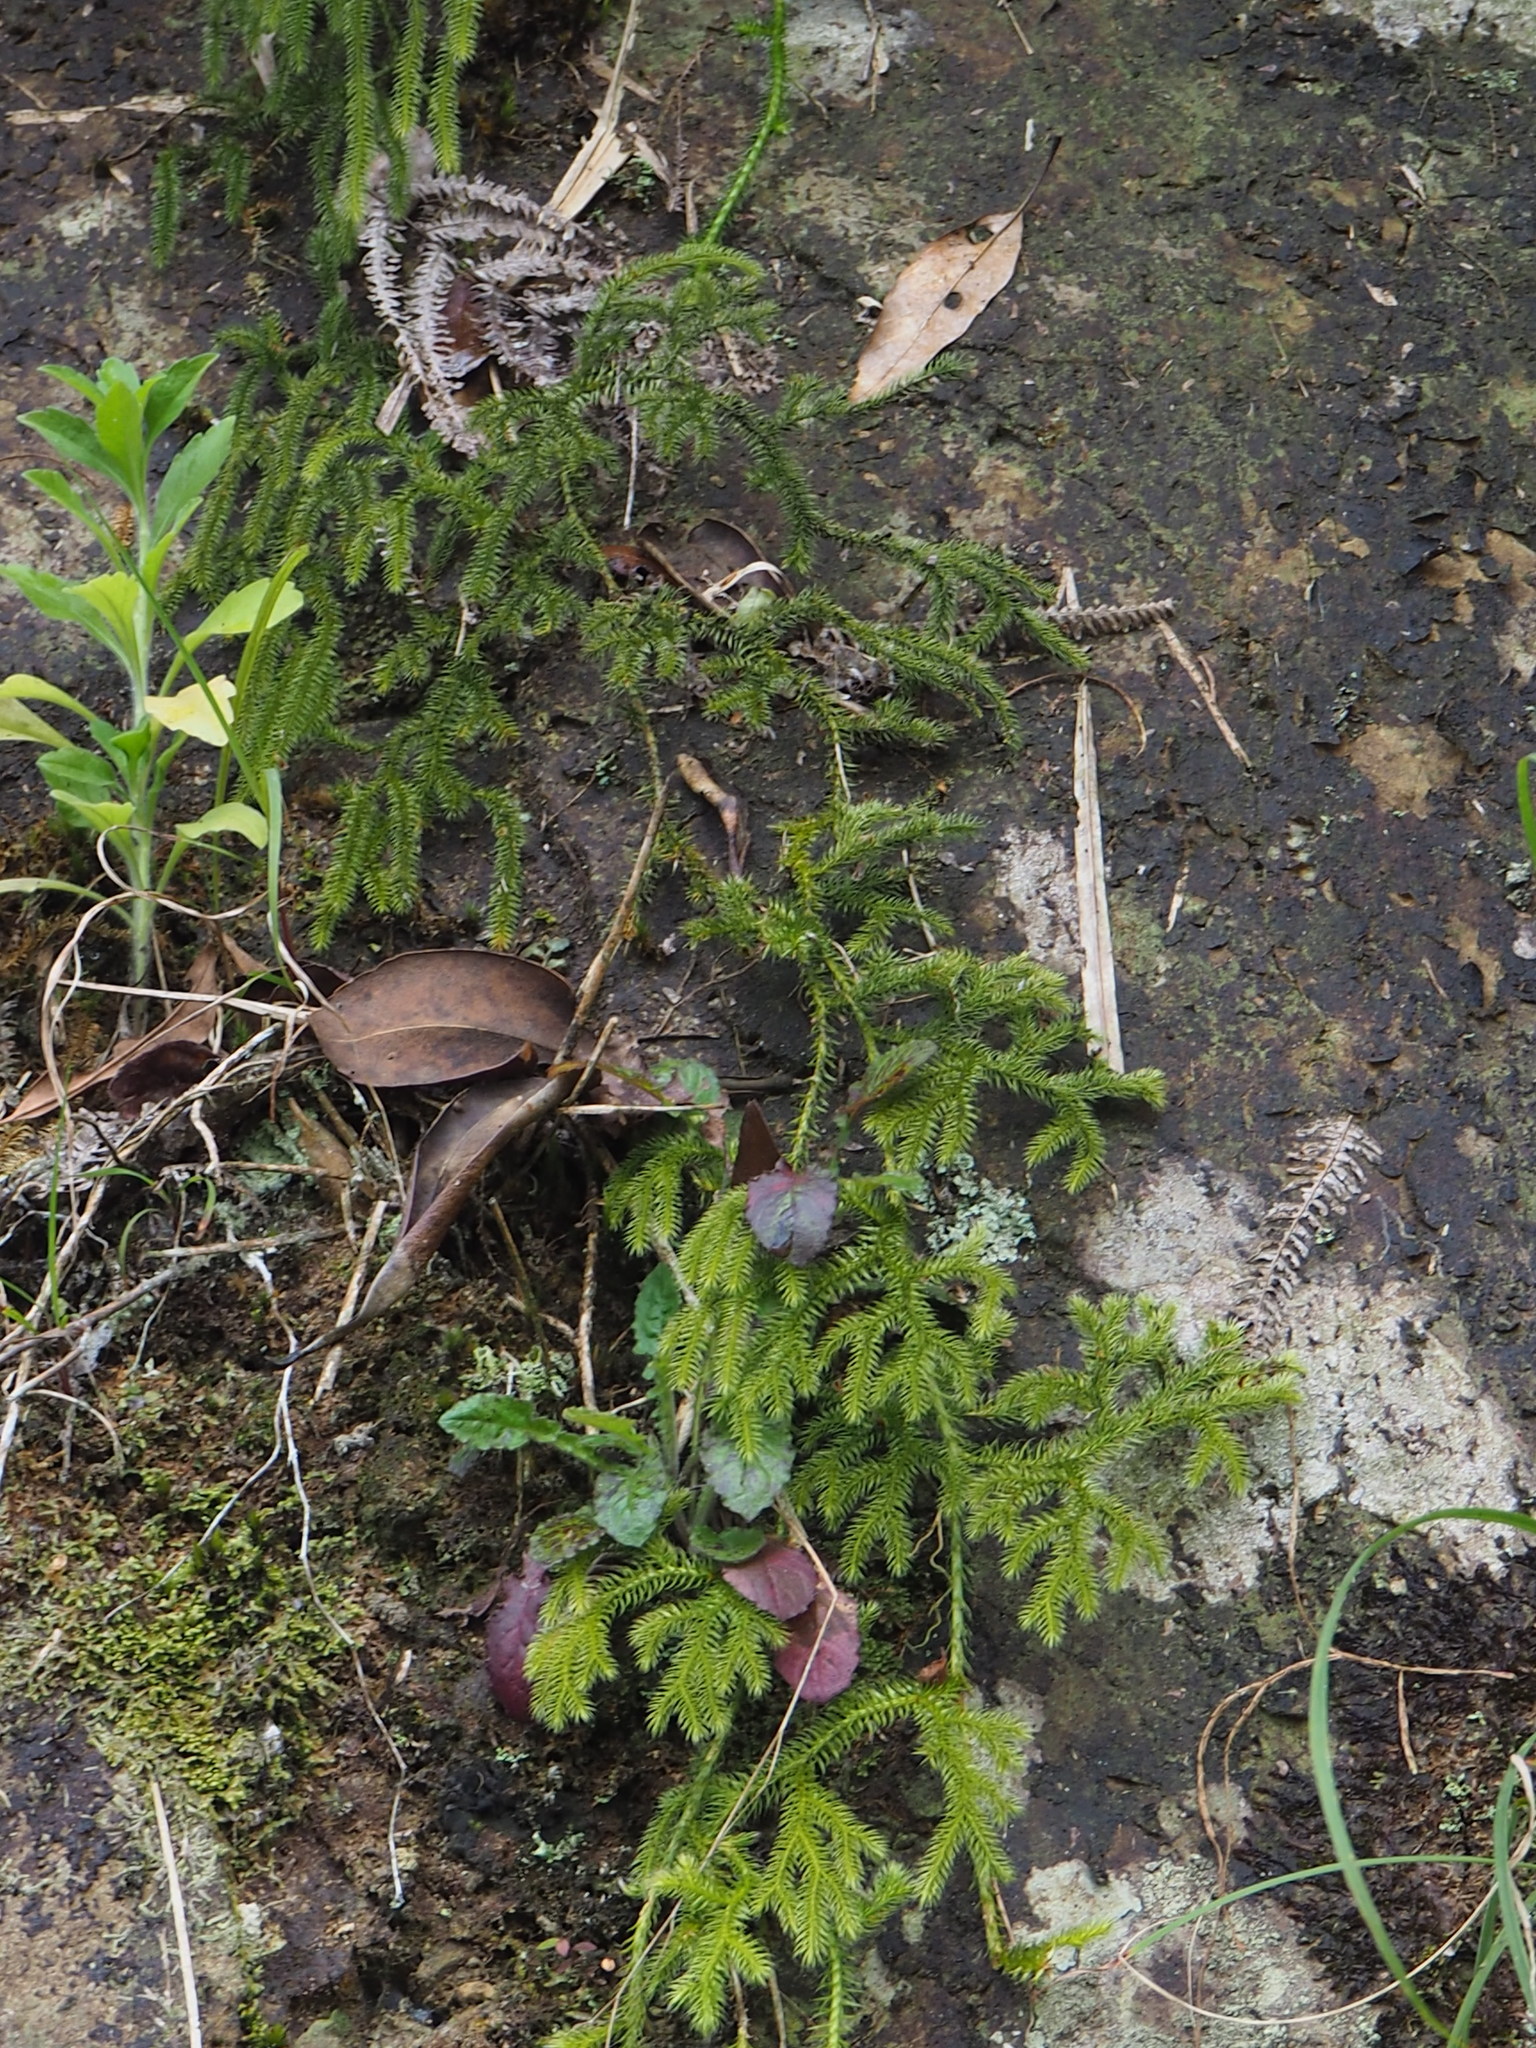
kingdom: Plantae
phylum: Tracheophyta
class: Lycopodiopsida
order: Lycopodiales
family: Lycopodiaceae
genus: Palhinhaea
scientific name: Palhinhaea cernua
